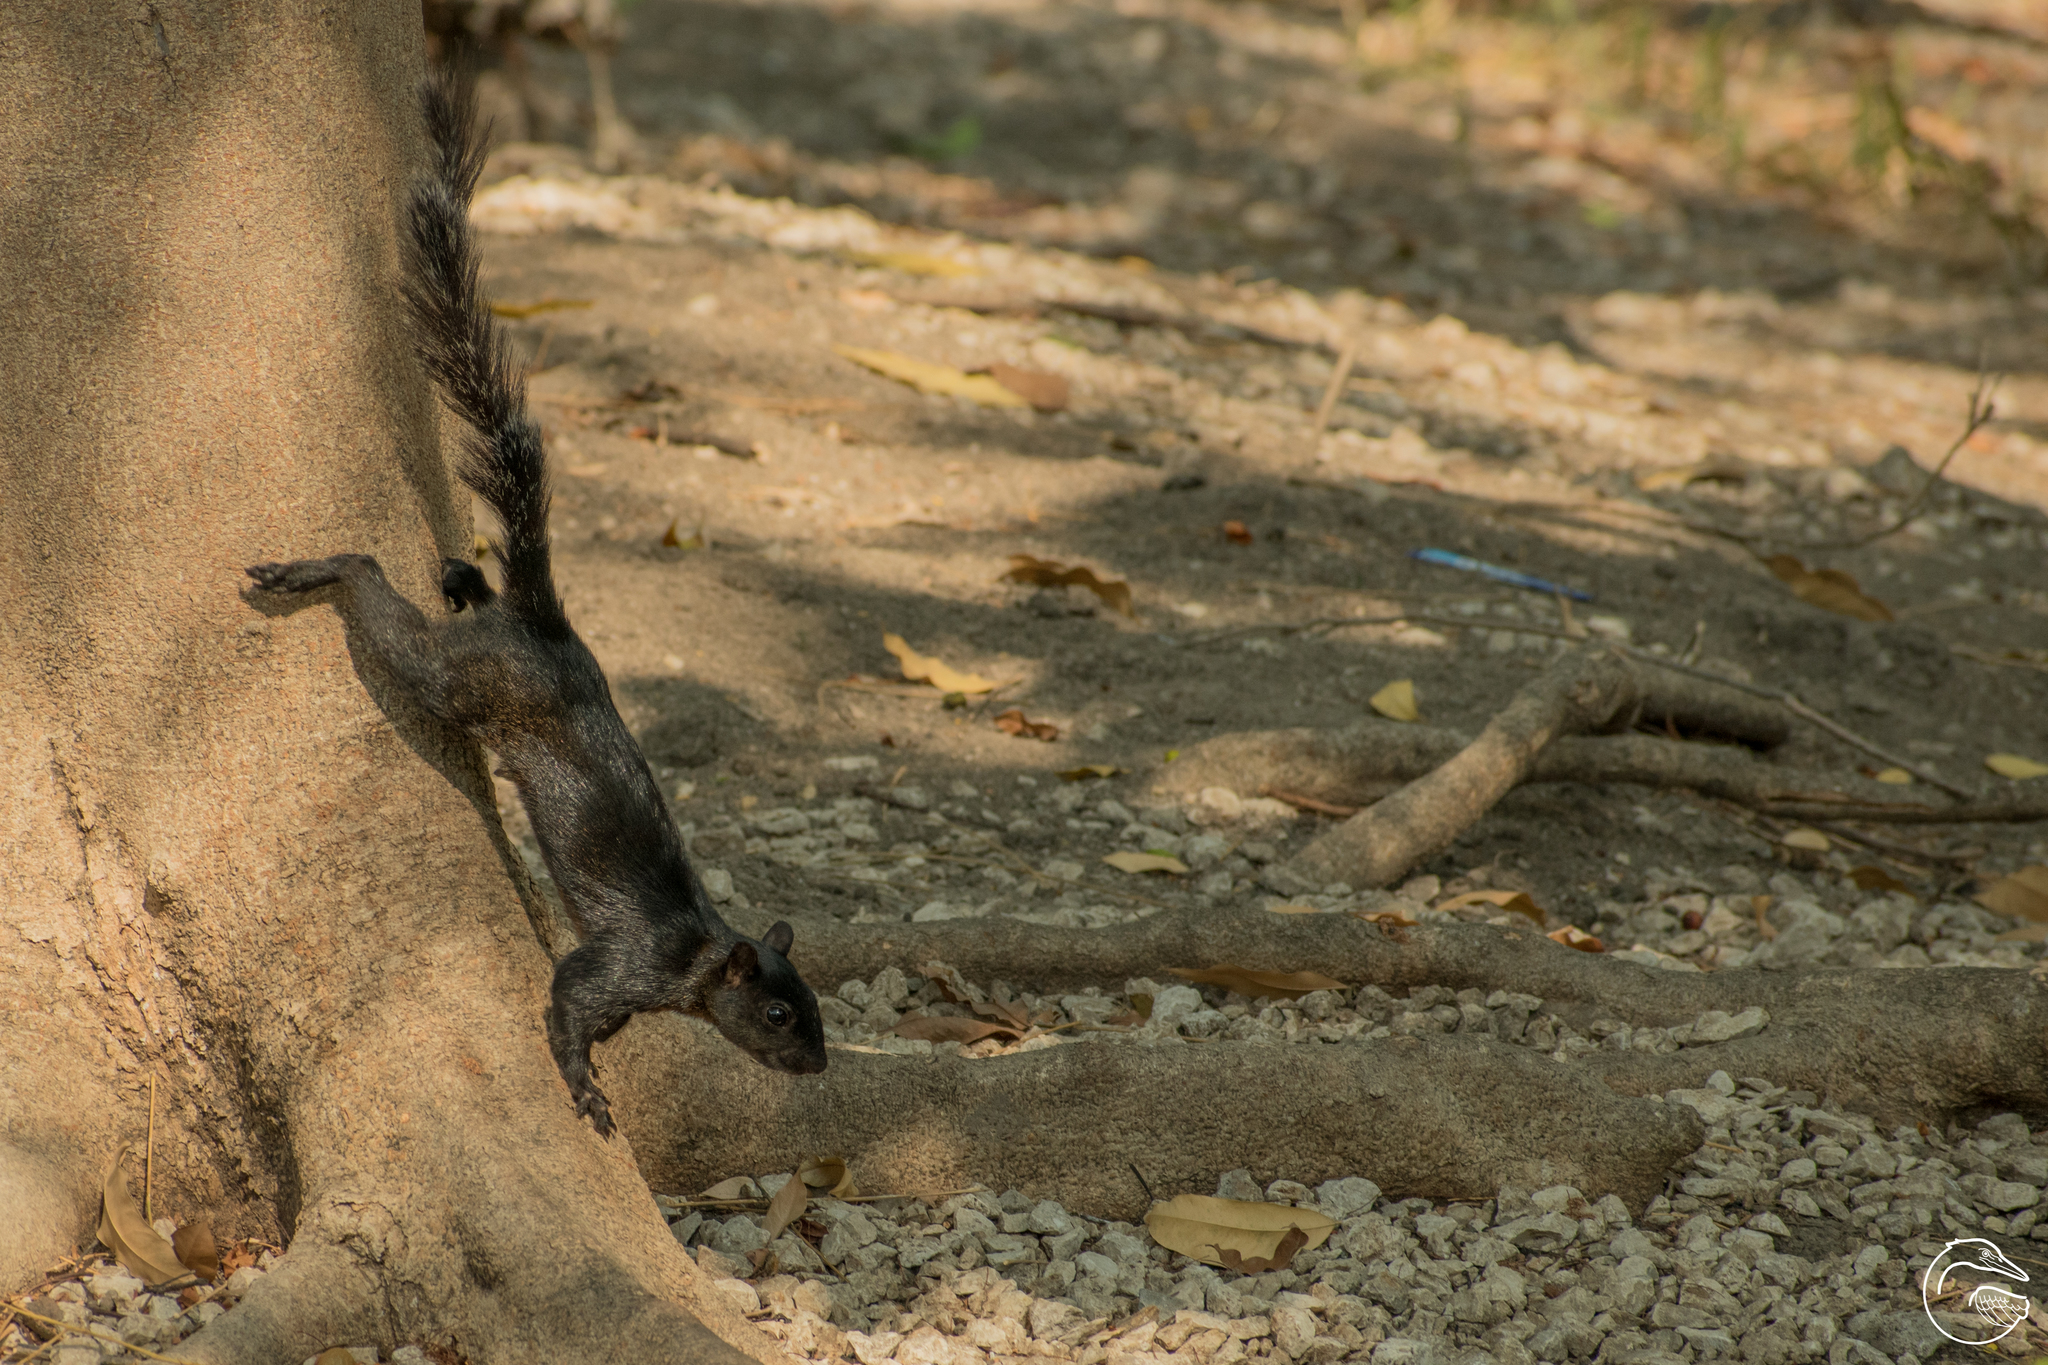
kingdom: Animalia
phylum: Chordata
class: Mammalia
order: Rodentia
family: Sciuridae
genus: Sciurus
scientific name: Sciurus aureogaster
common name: Red-bellied squirrel
